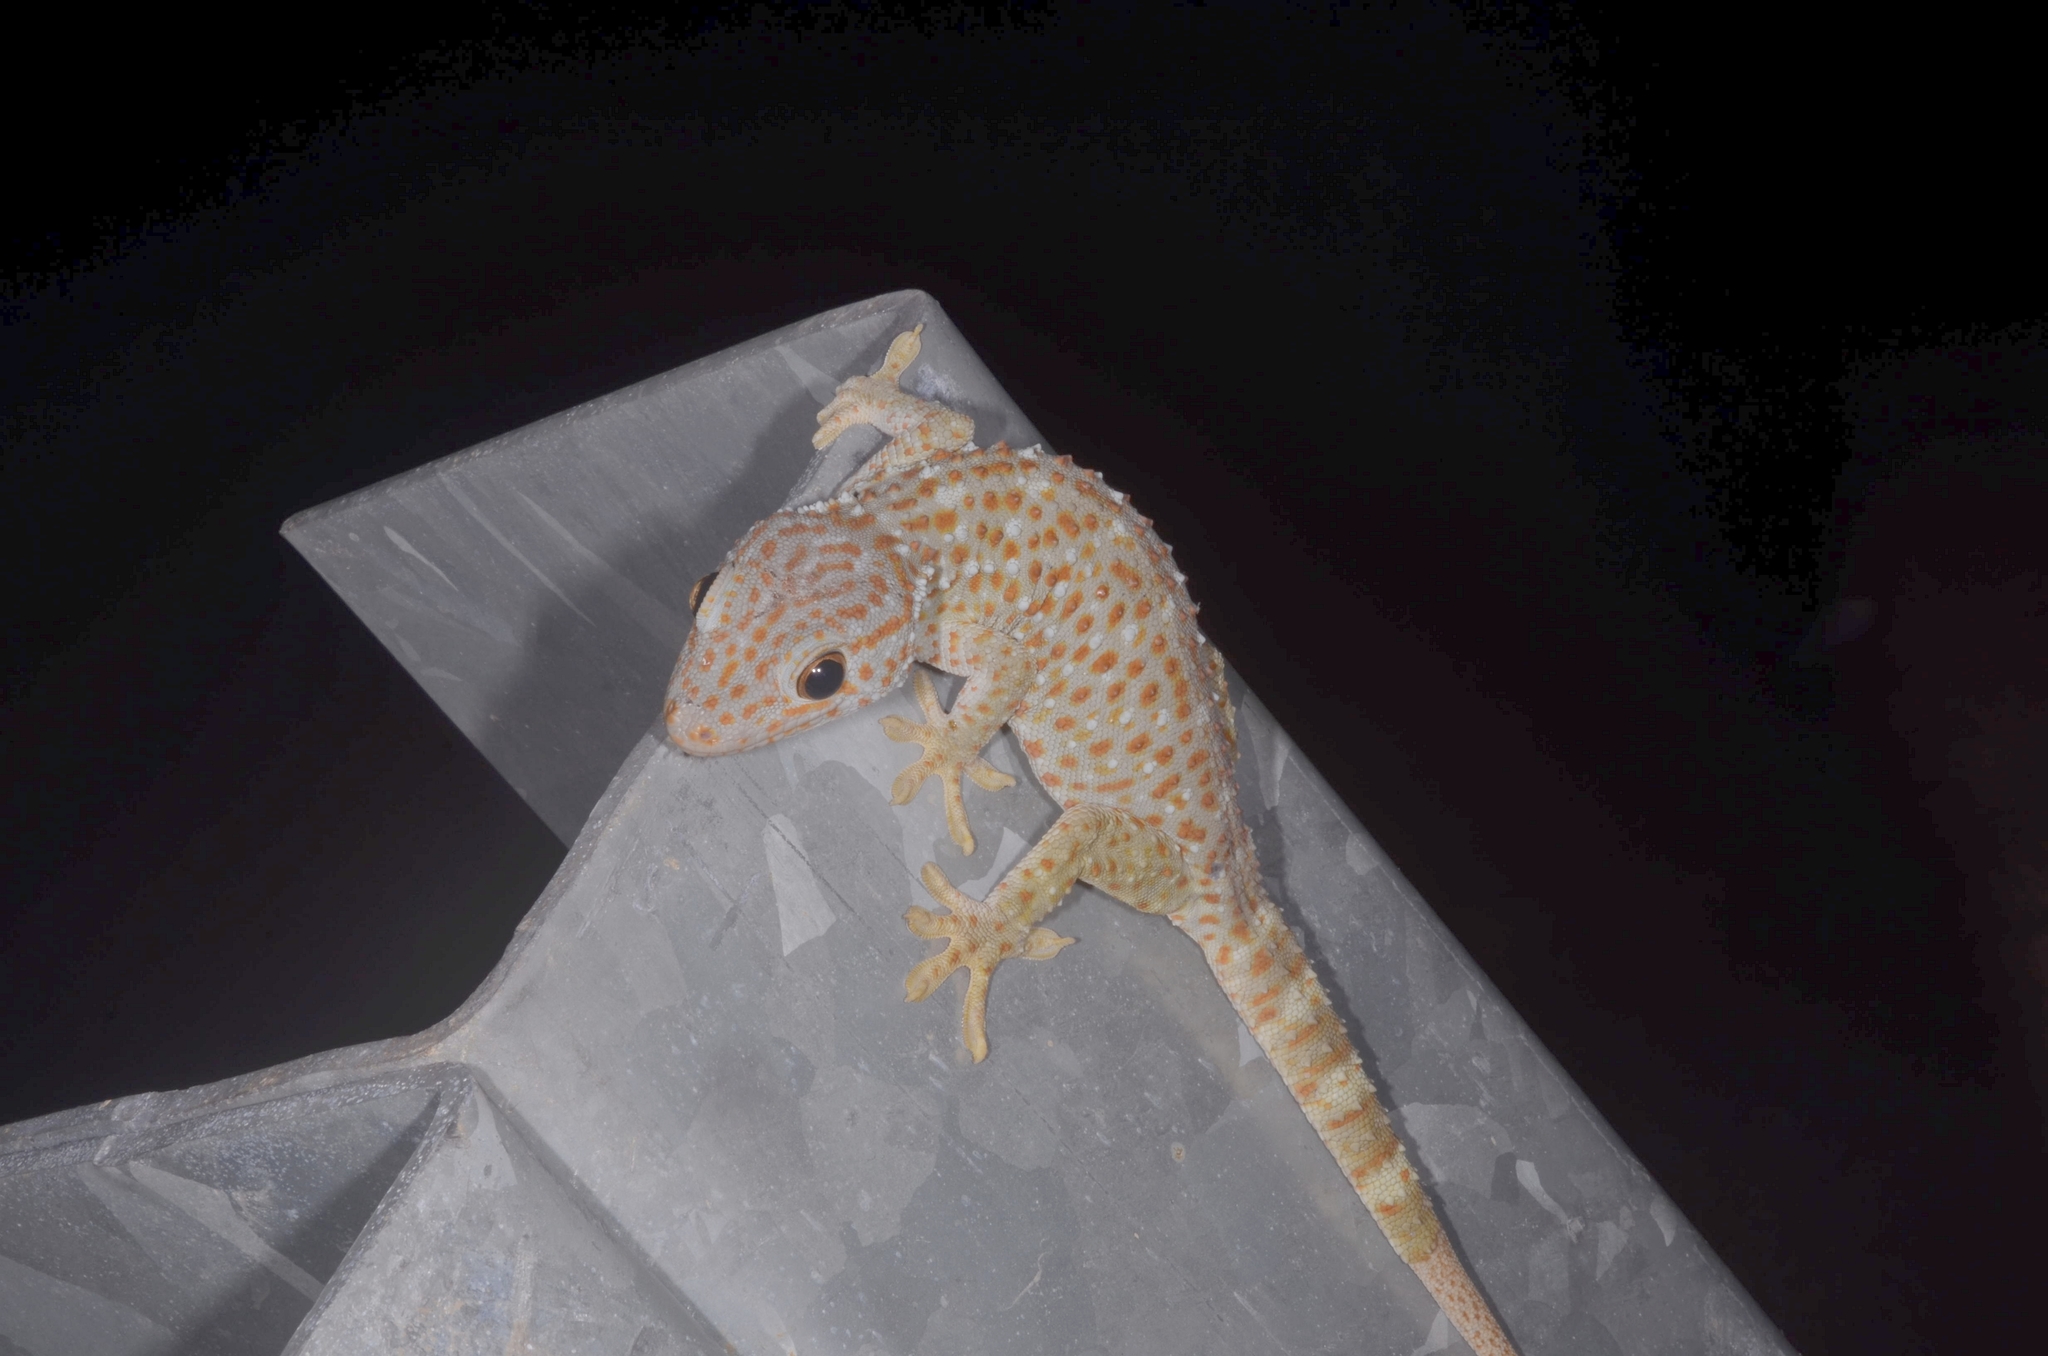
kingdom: Animalia
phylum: Chordata
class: Squamata
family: Gekkonidae
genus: Gekko
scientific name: Gekko gecko
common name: Tokay gecko
